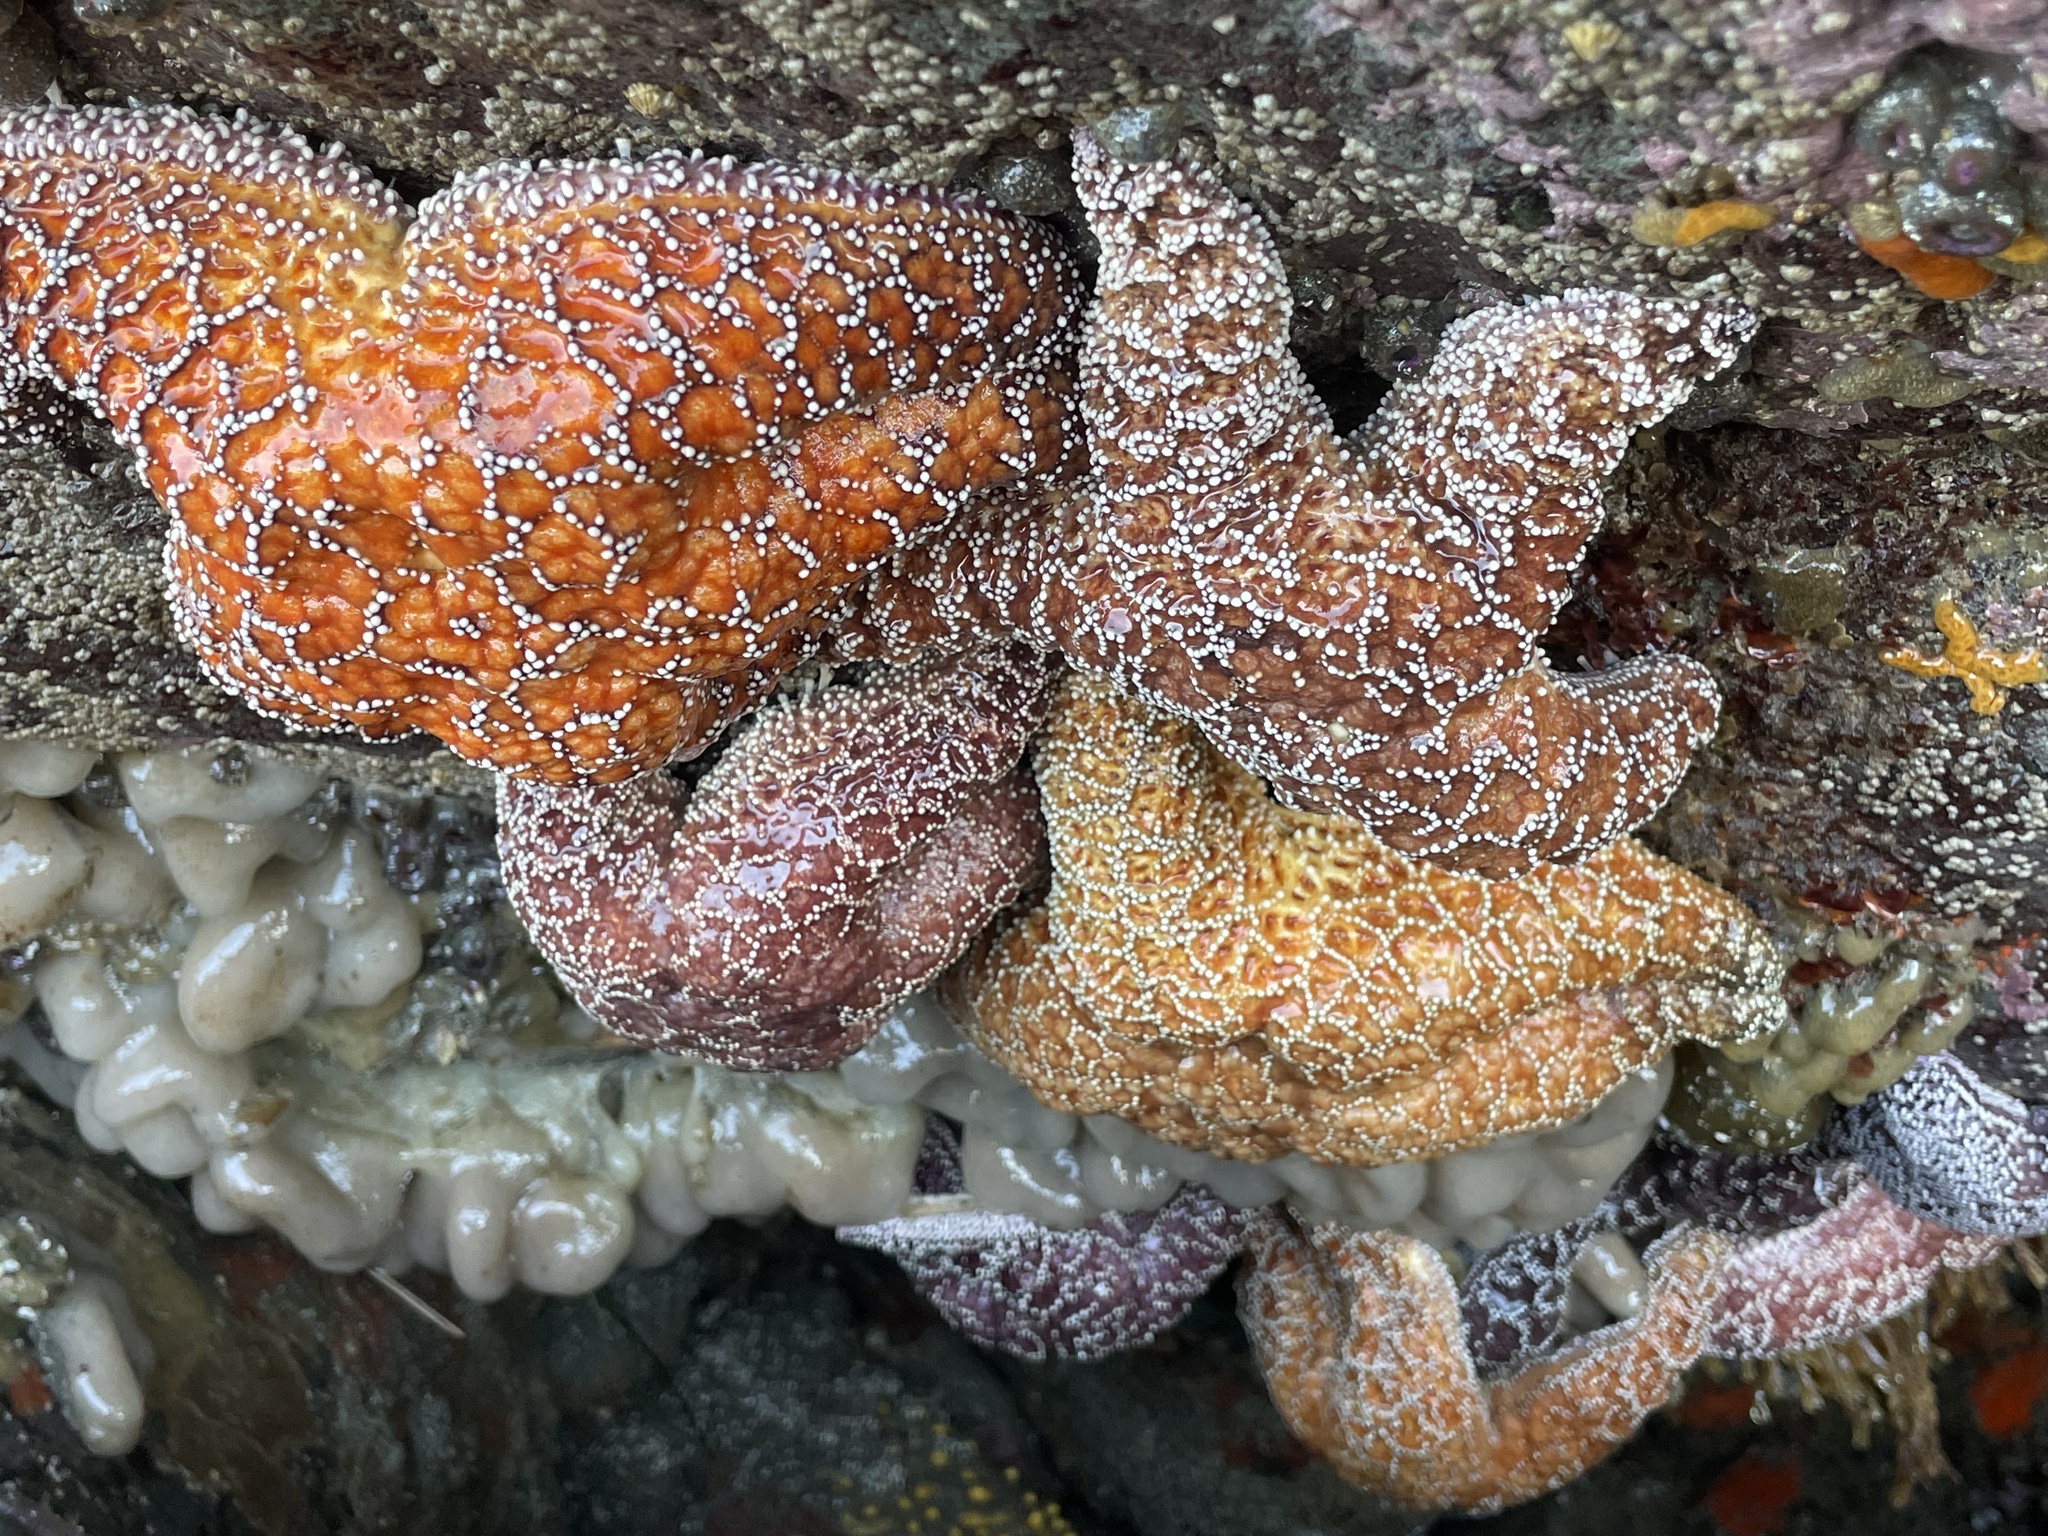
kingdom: Animalia
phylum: Echinodermata
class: Asteroidea
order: Forcipulatida
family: Asteriidae
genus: Pisaster
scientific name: Pisaster ochraceus
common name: Ochre stars
